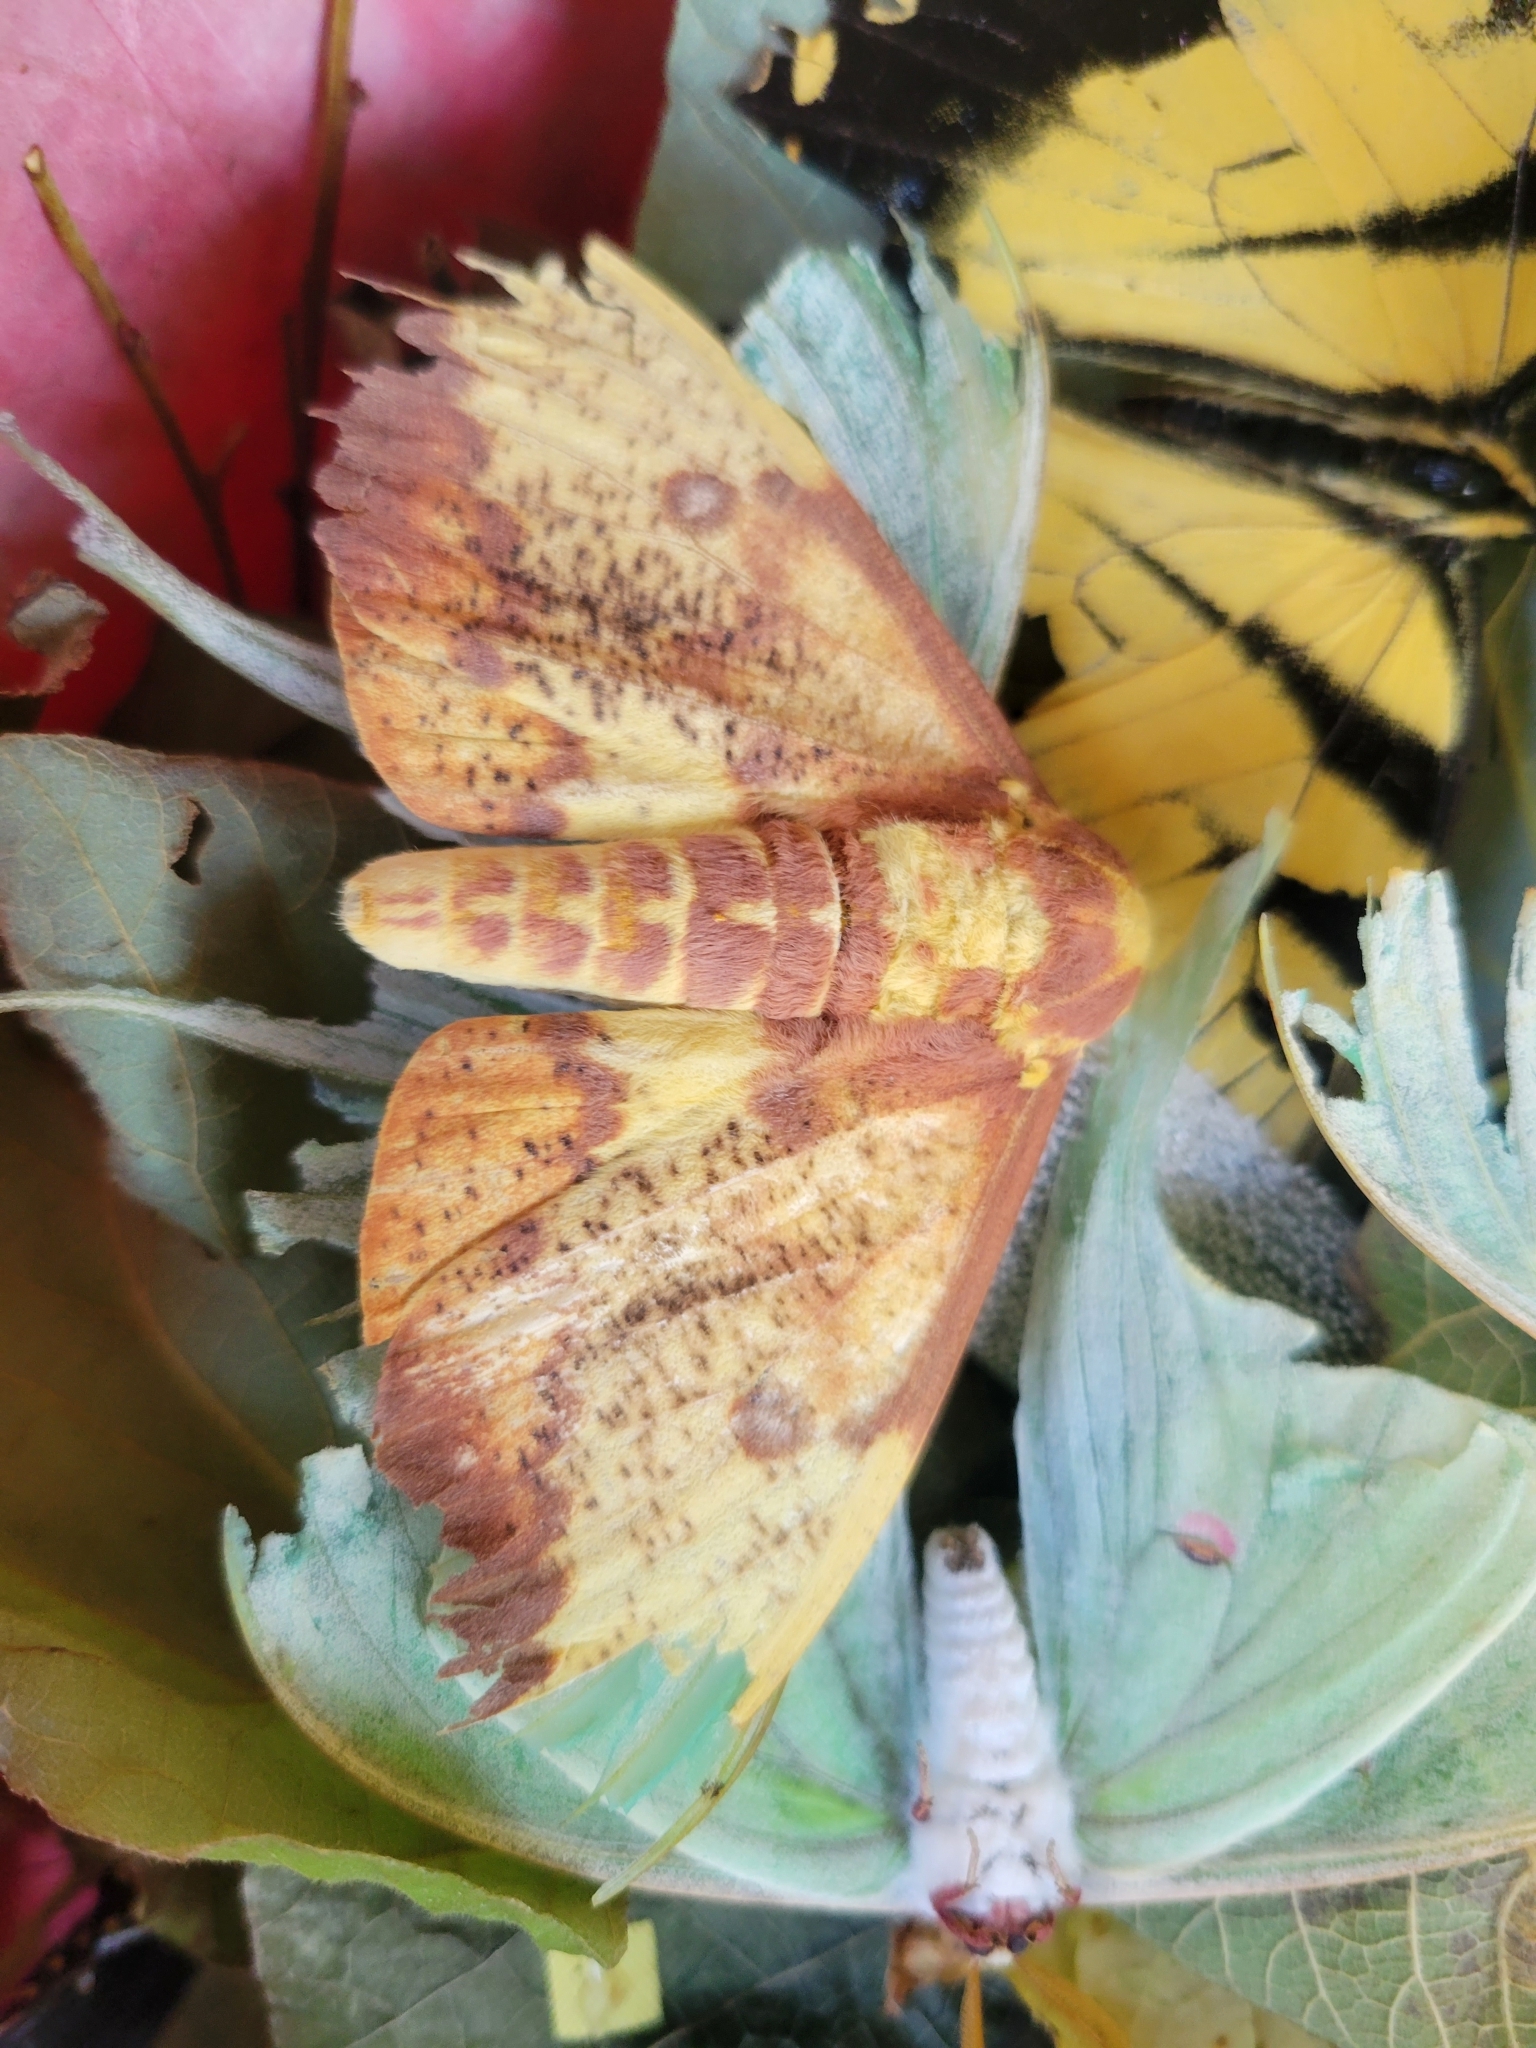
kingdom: Animalia
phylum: Arthropoda
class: Insecta
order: Lepidoptera
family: Saturniidae
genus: Eacles
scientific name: Eacles imperialis
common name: Imperial moth
